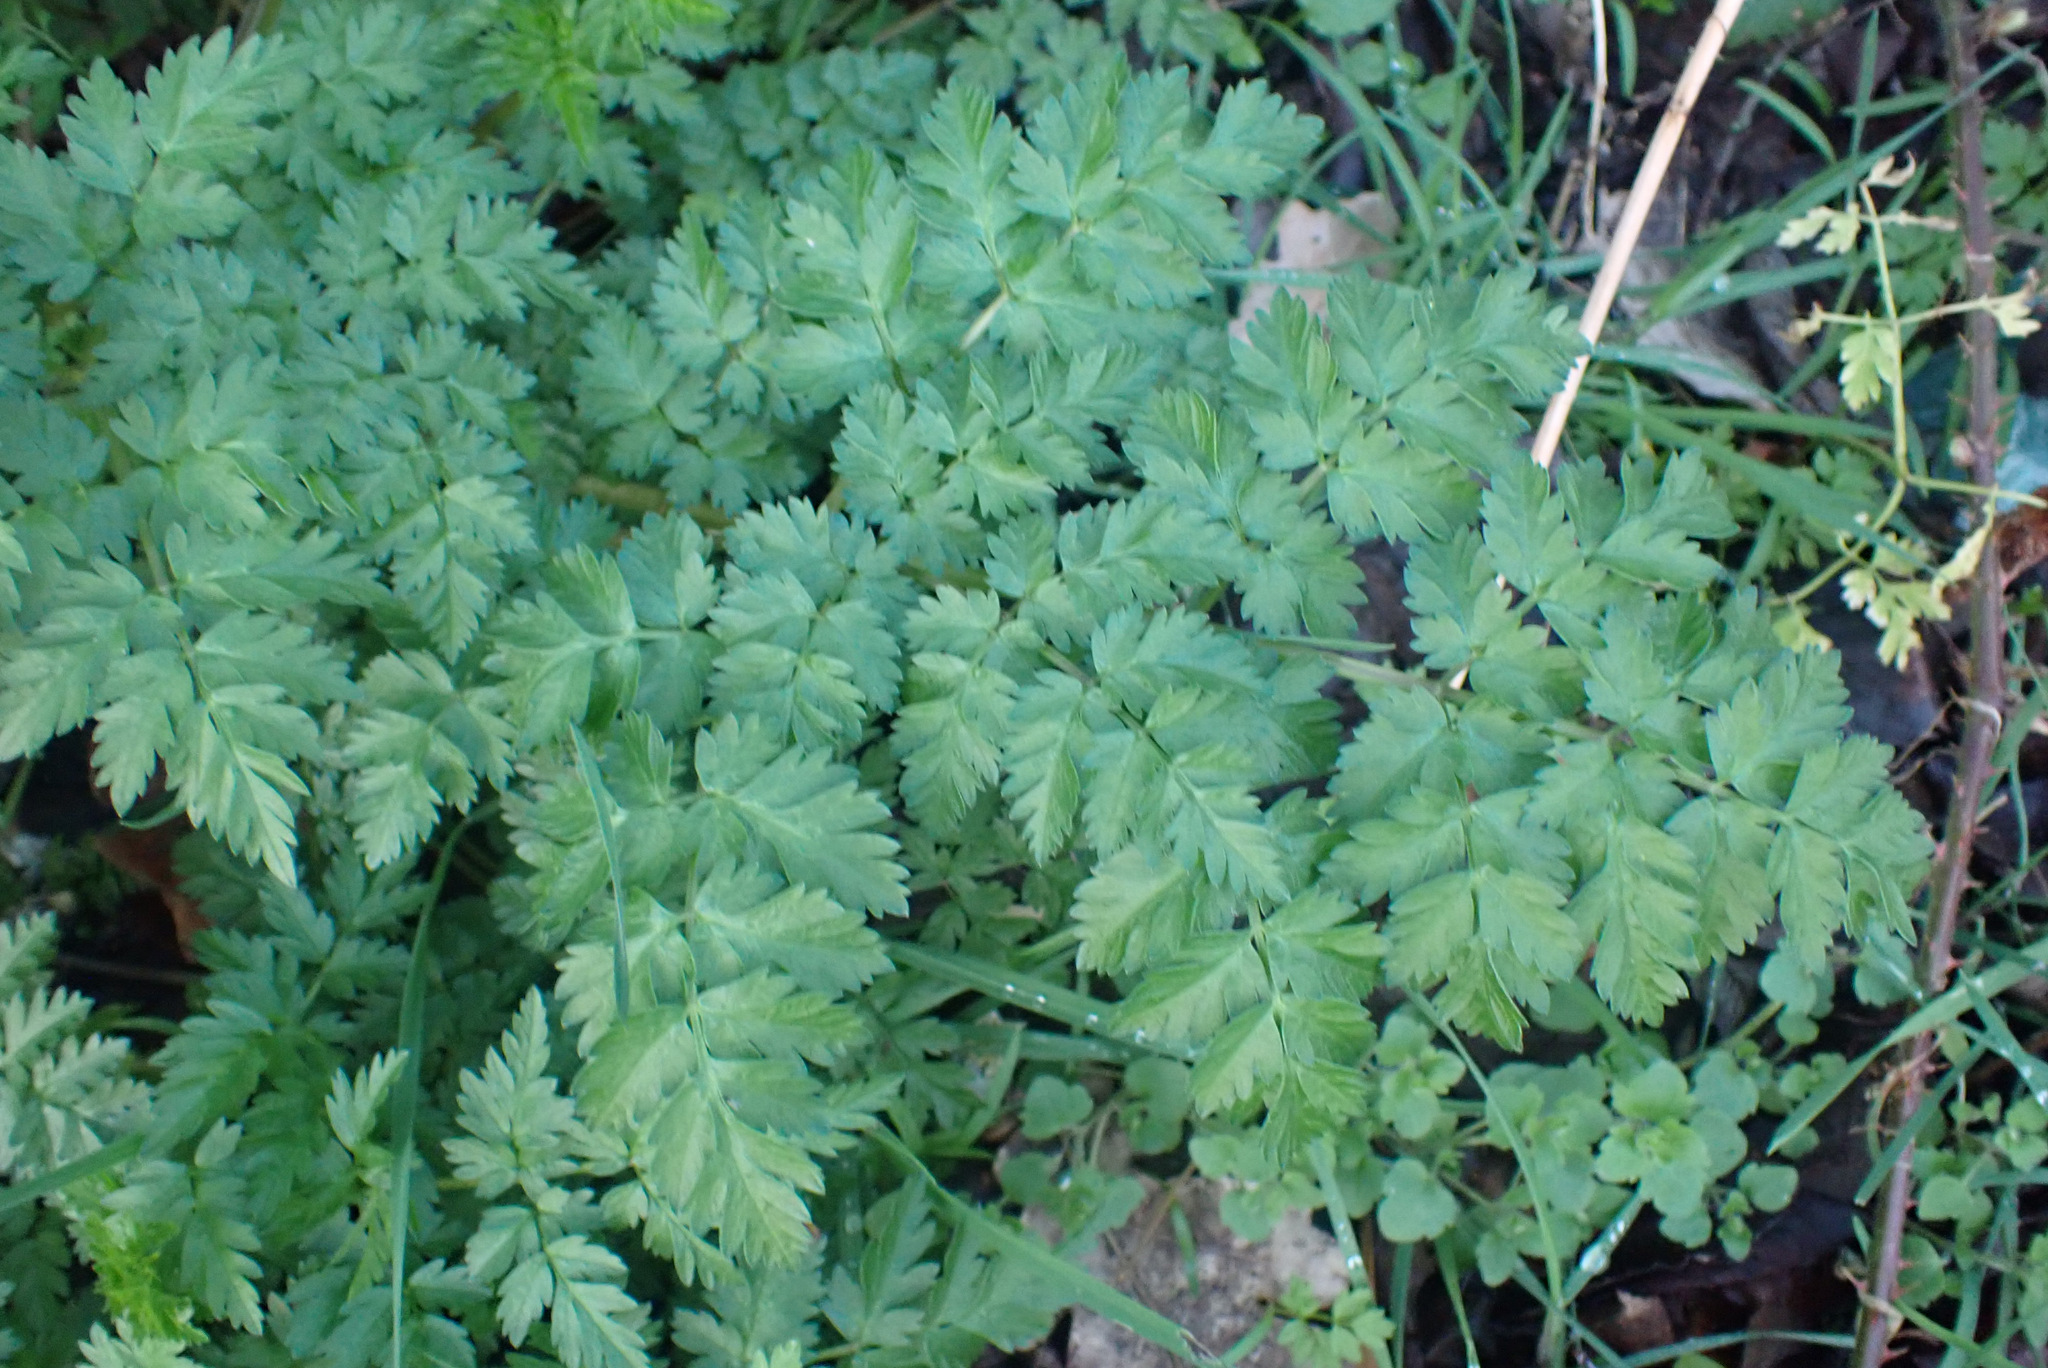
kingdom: Plantae
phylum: Tracheophyta
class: Magnoliopsida
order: Apiales
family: Apiaceae
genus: Anthriscus
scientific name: Anthriscus sylvestris
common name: Cow parsley
